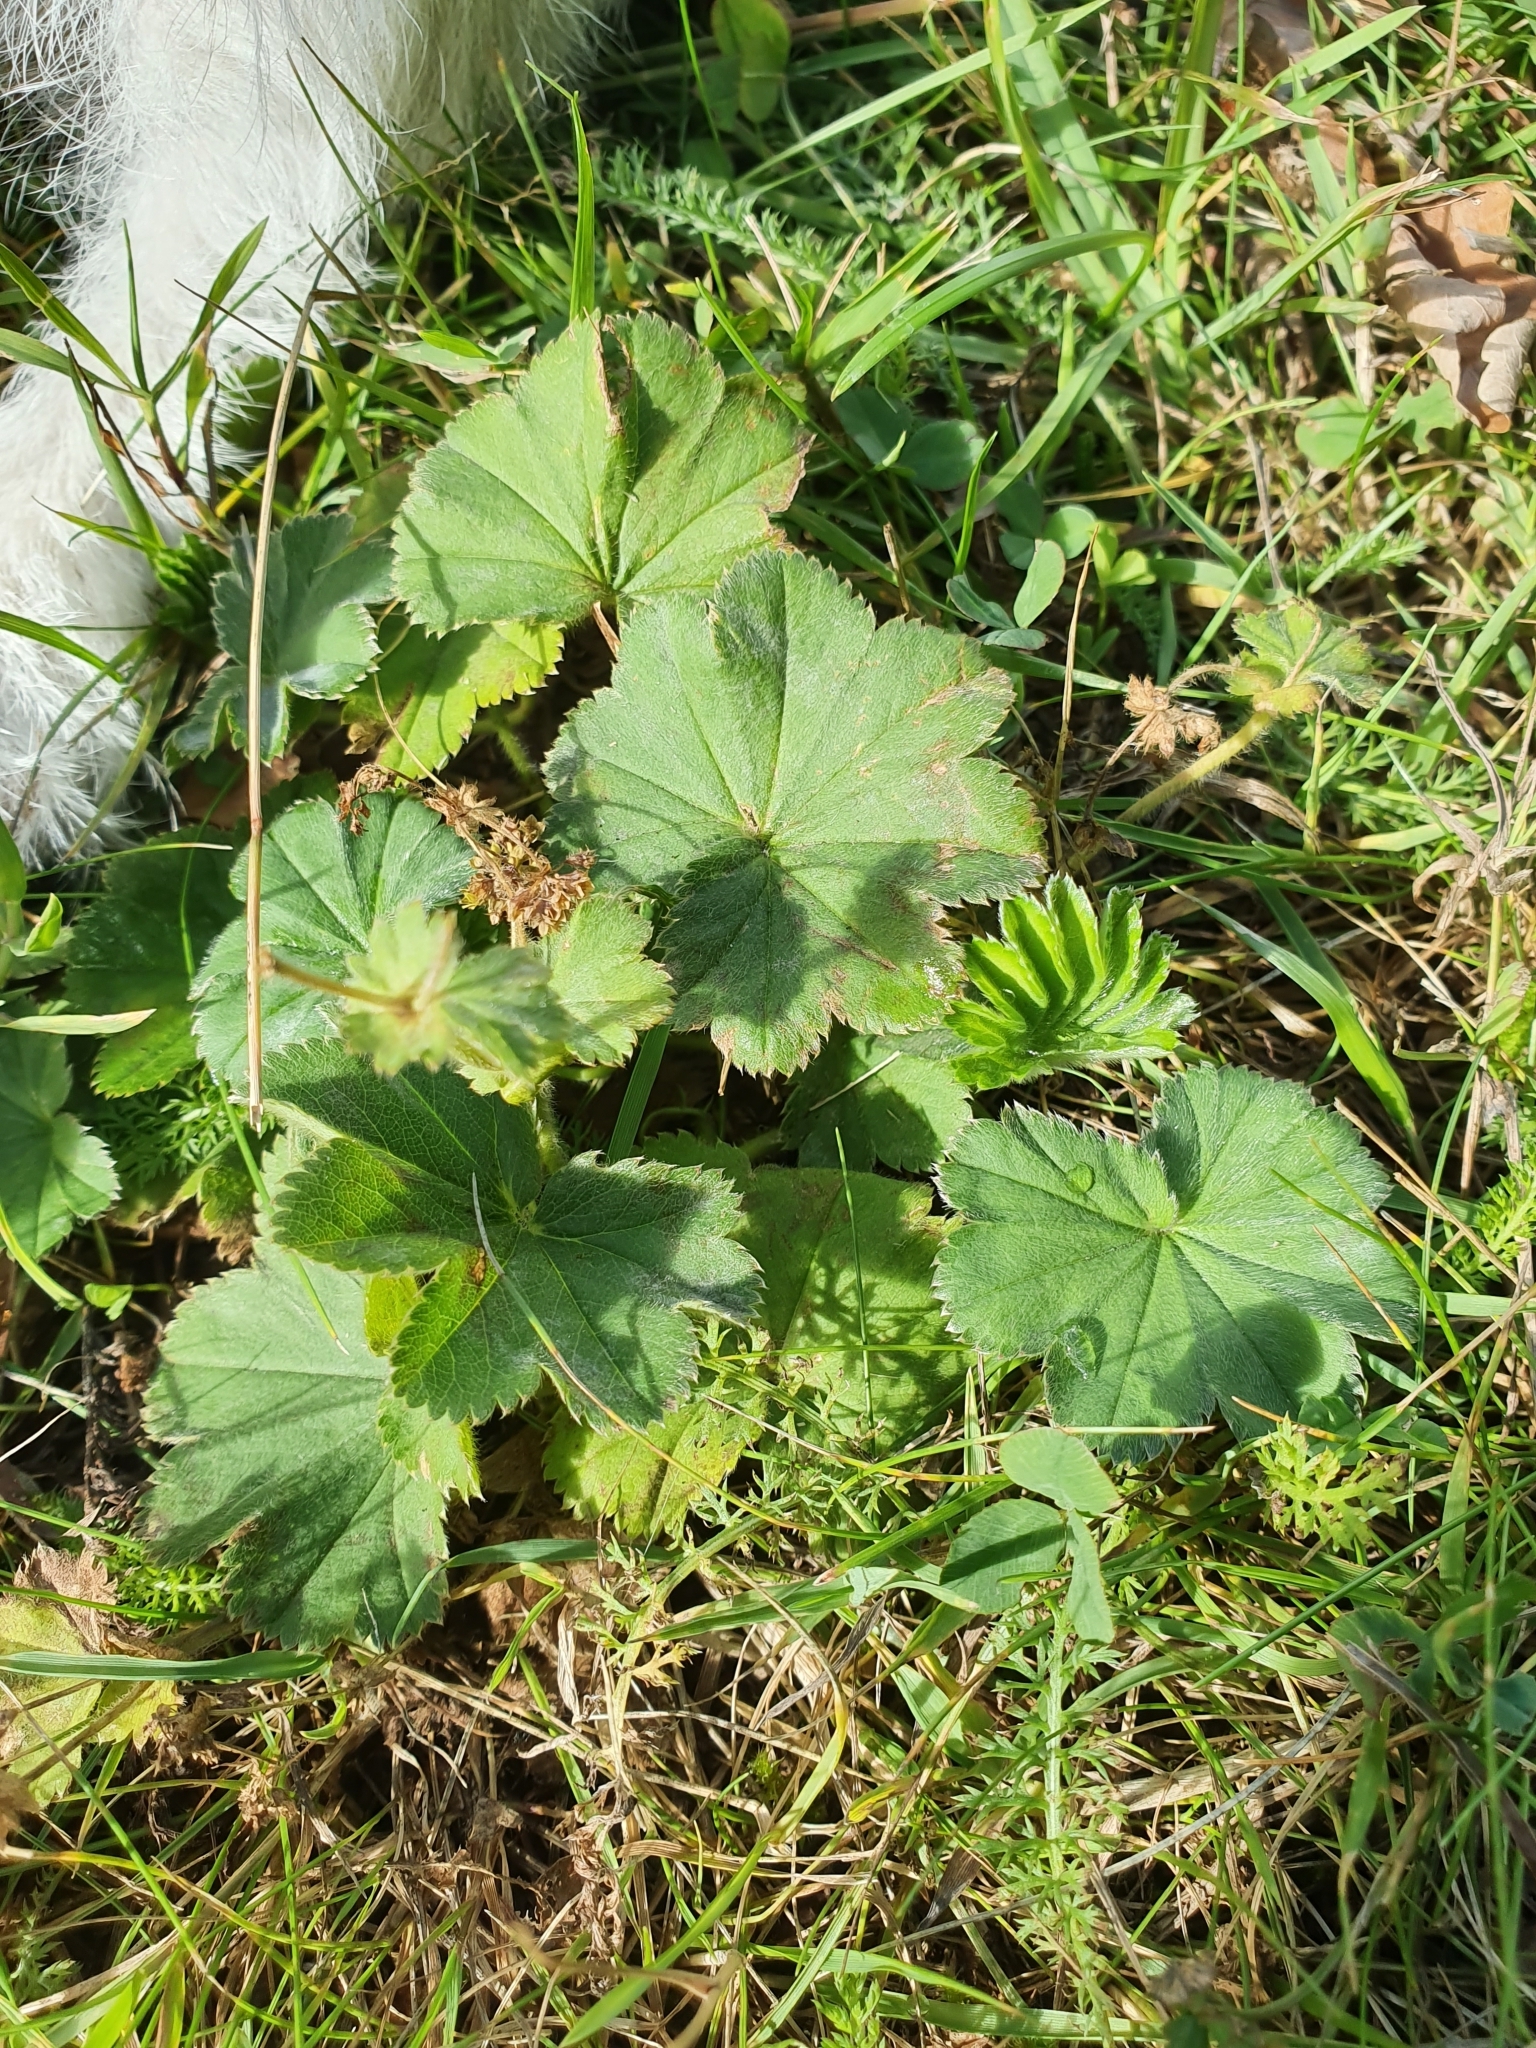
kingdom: Plantae
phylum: Tracheophyta
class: Magnoliopsida
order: Rosales
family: Rosaceae
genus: Alchemilla
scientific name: Alchemilla
